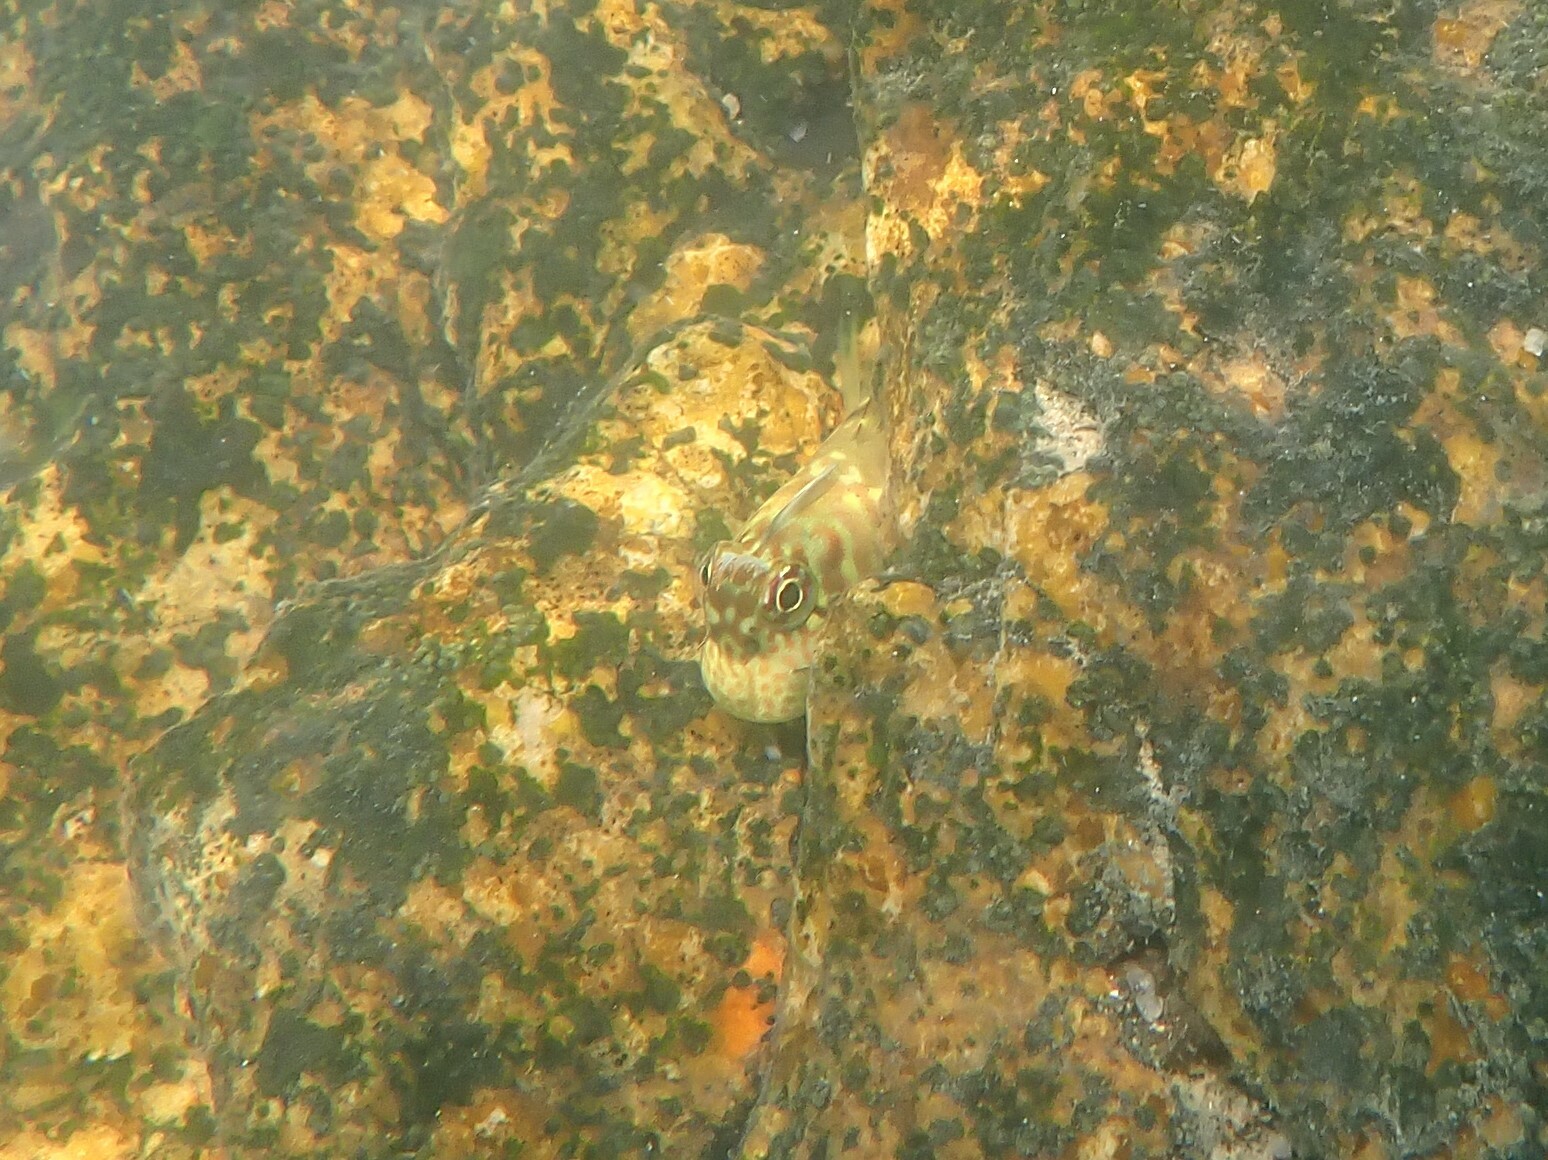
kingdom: Animalia
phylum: Chordata
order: Perciformes
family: Blenniidae
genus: Istiblennius
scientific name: Istiblennius dussumieri
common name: Dussumier's rockskipper
